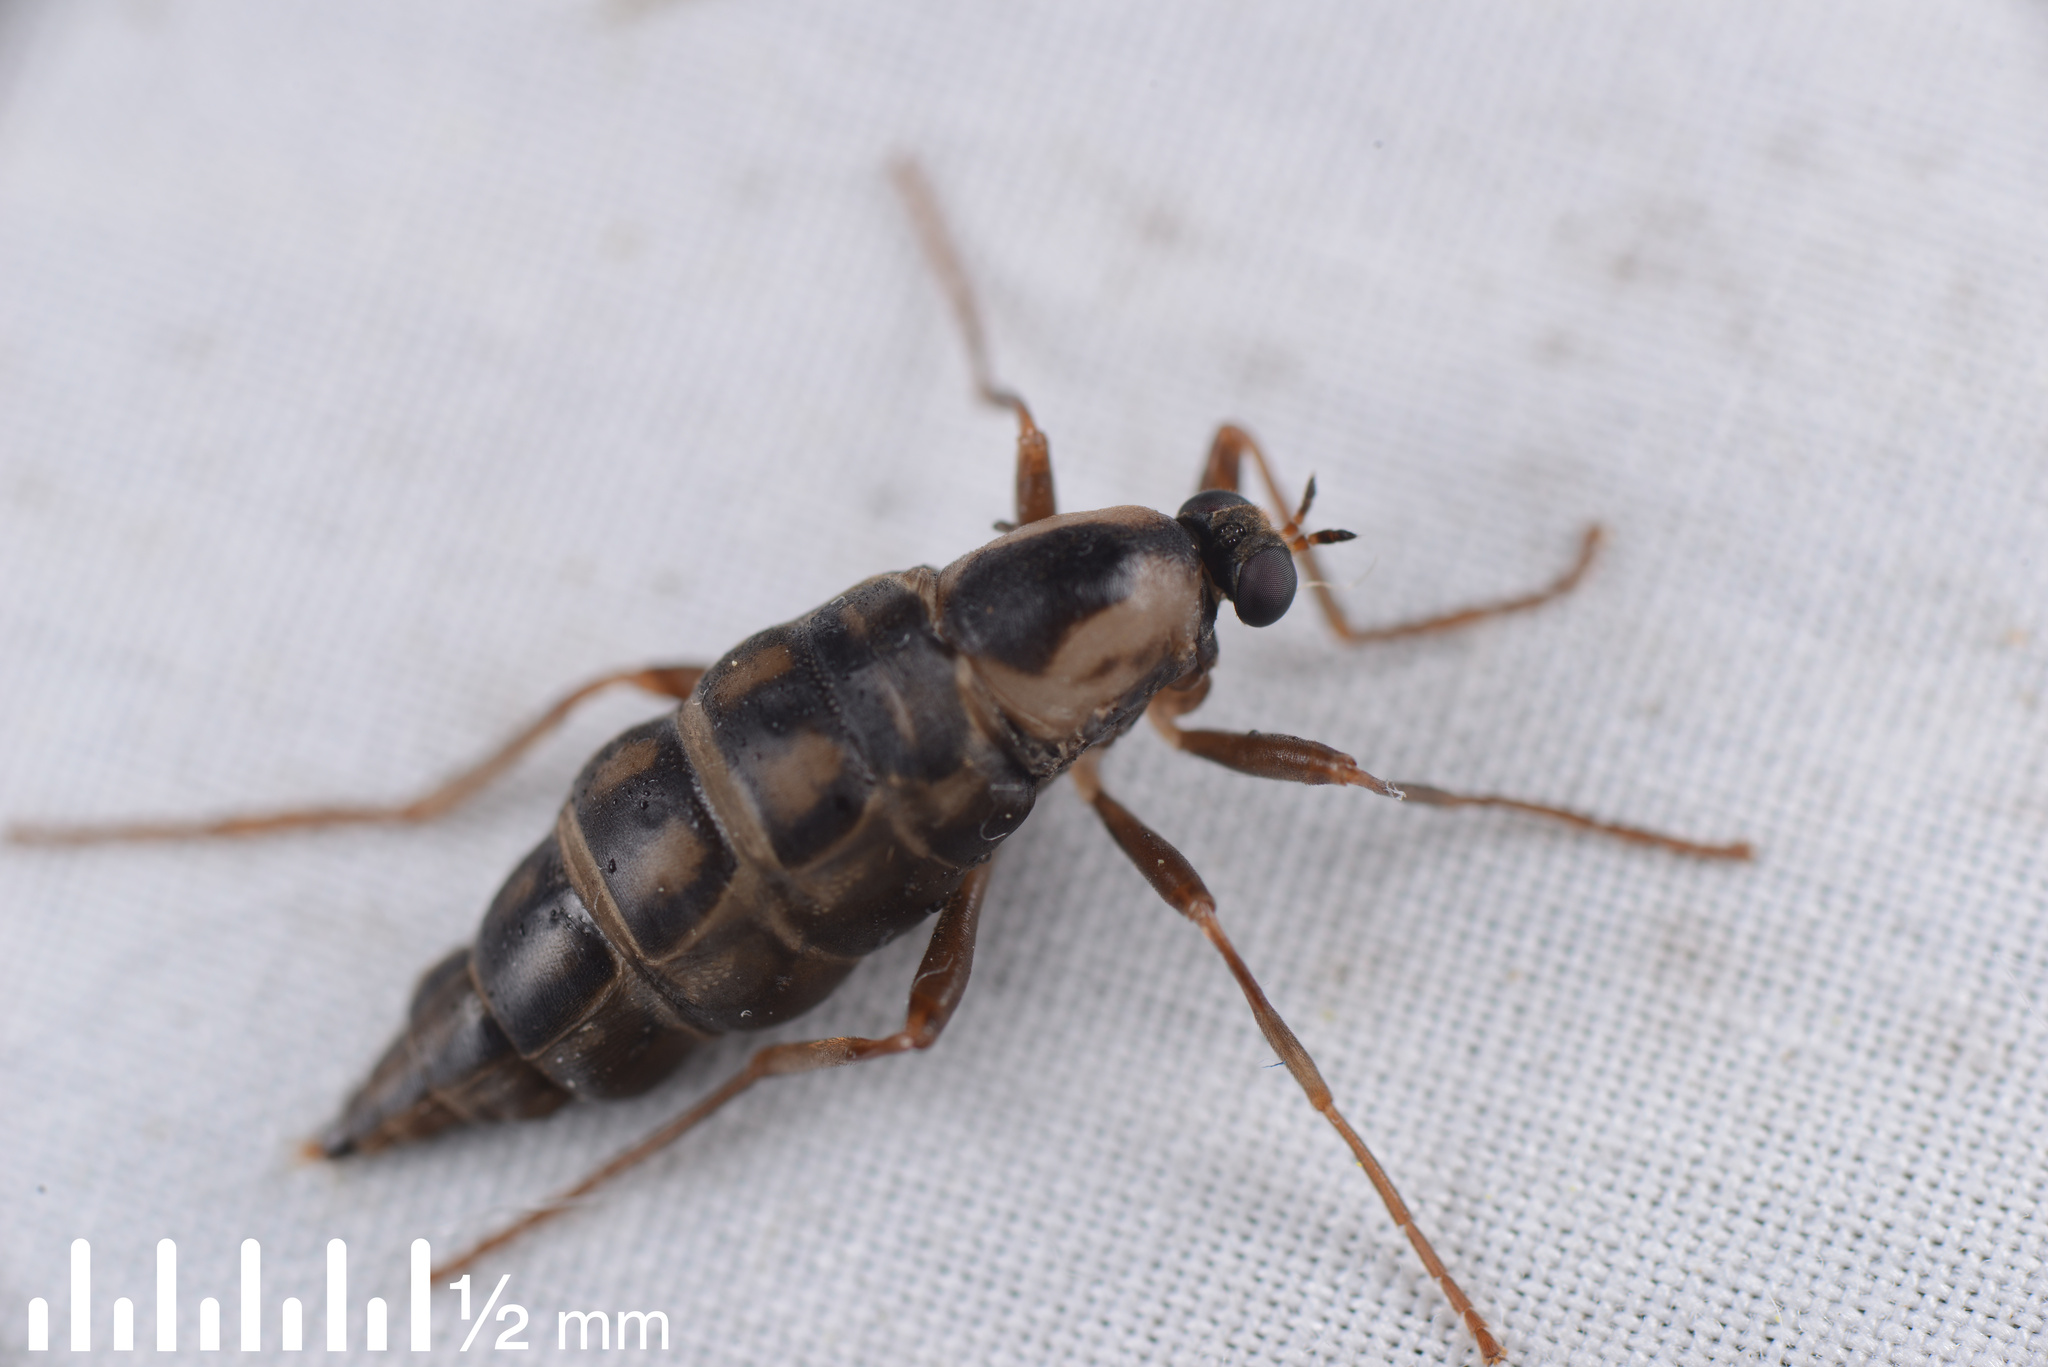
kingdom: Animalia
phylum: Arthropoda
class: Insecta
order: Diptera
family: Stratiomyidae
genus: Boreoides
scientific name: Boreoides tasmaniensis
